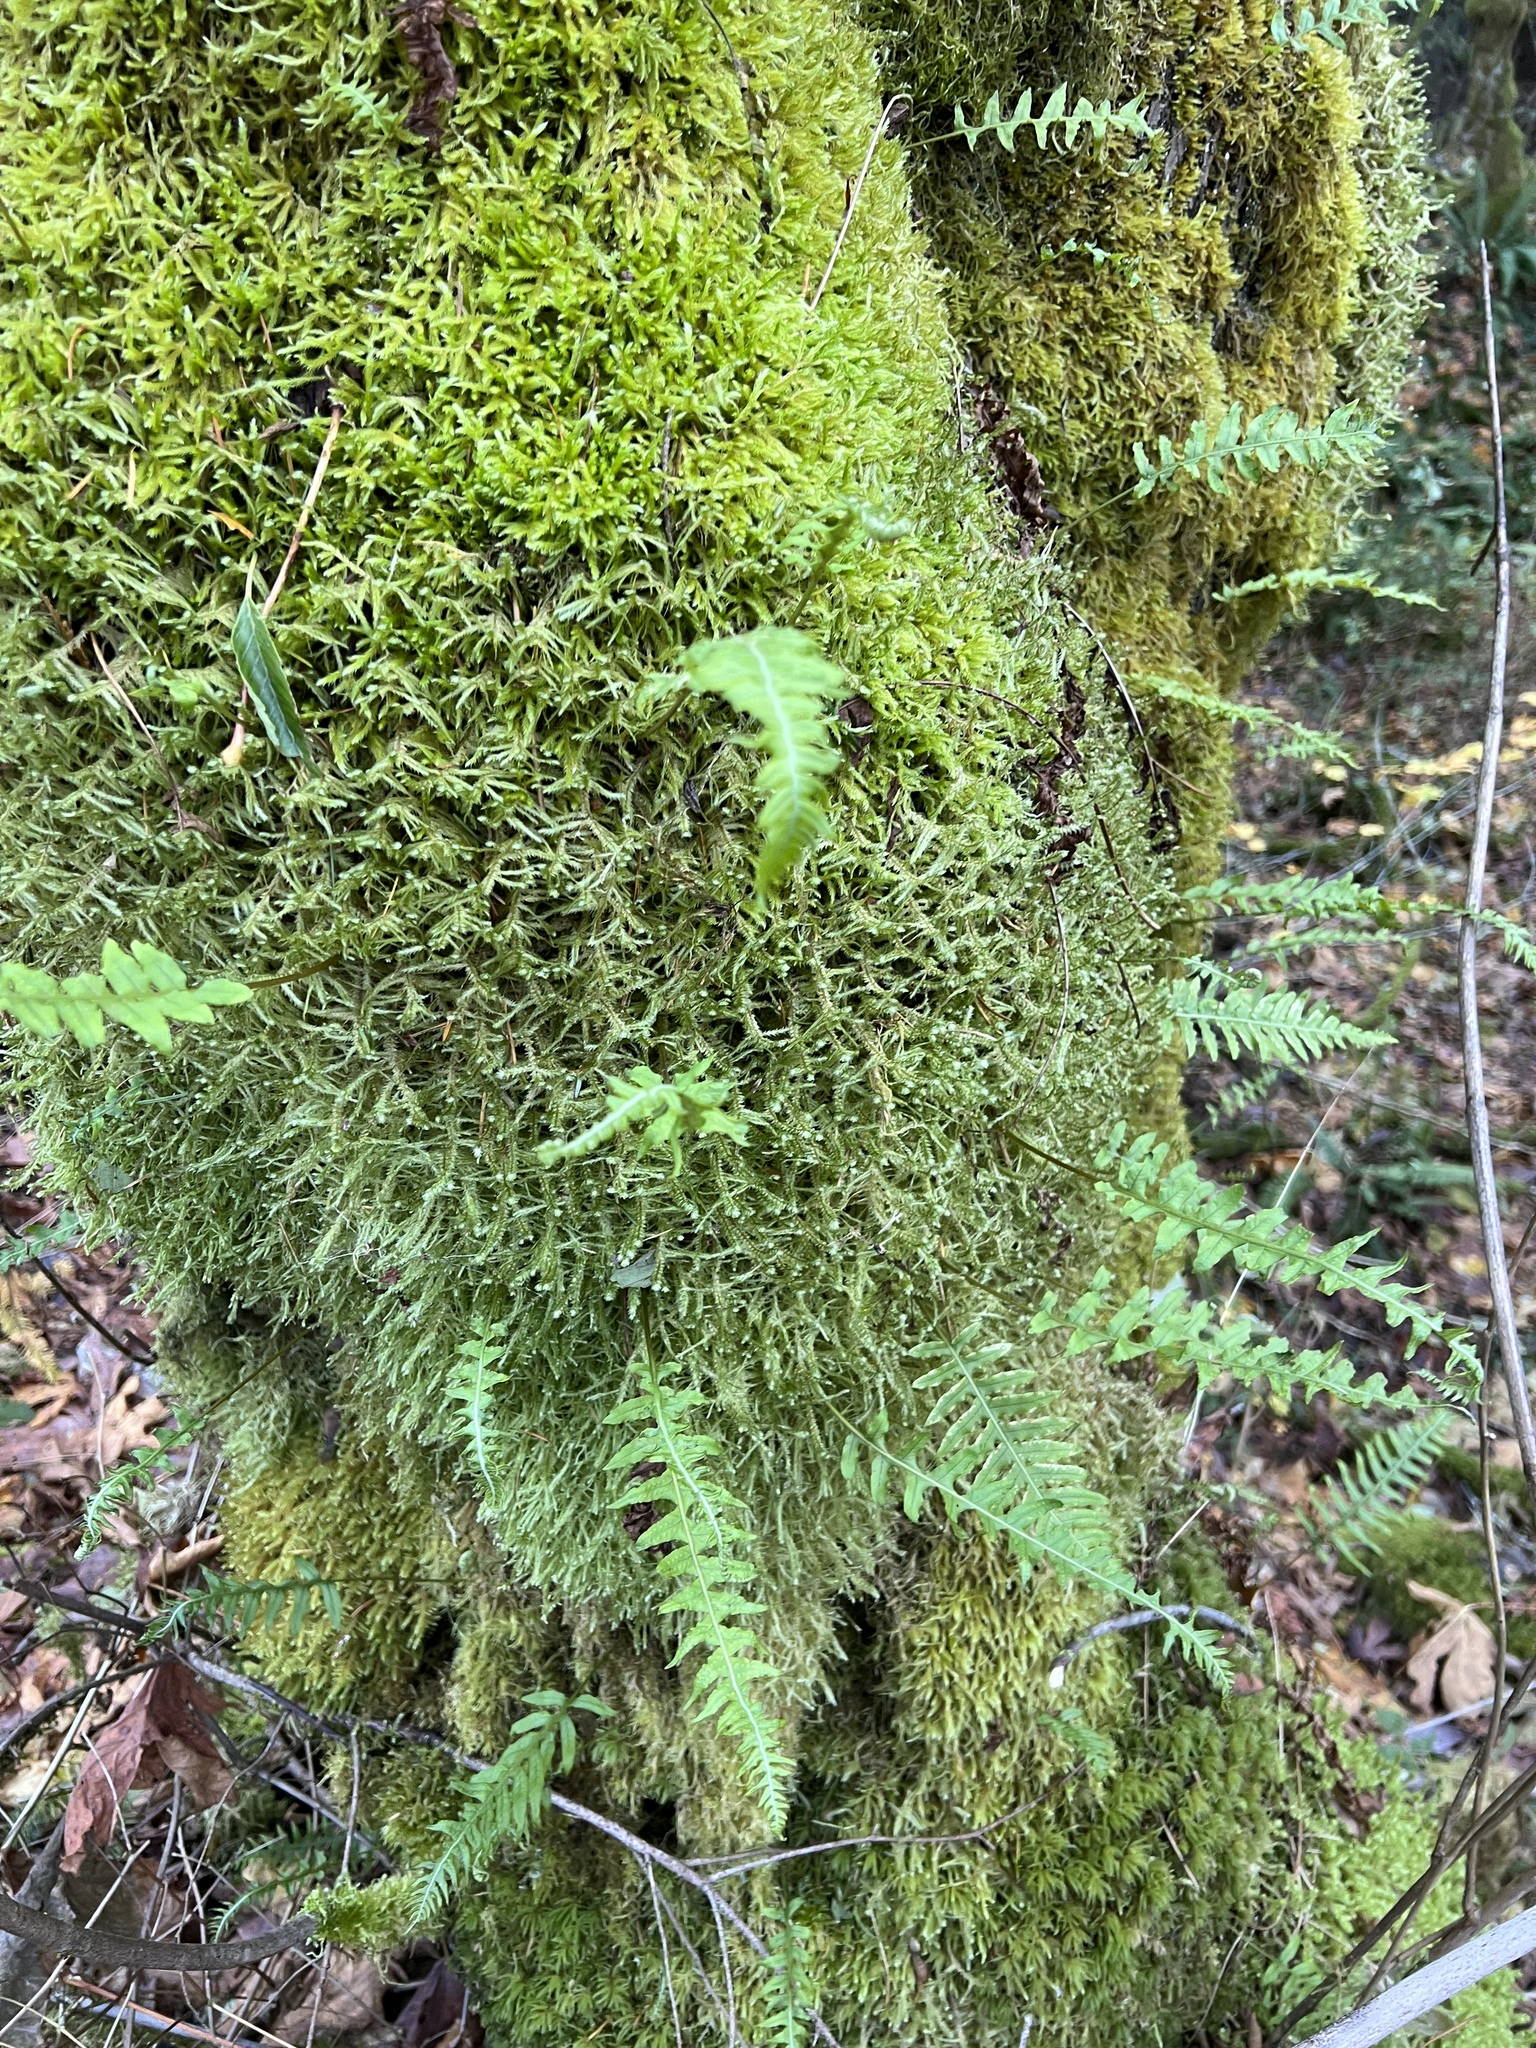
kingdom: Plantae
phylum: Tracheophyta
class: Polypodiopsida
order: Polypodiales
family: Polypodiaceae
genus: Polypodium
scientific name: Polypodium glycyrrhiza
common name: Licorice fern
